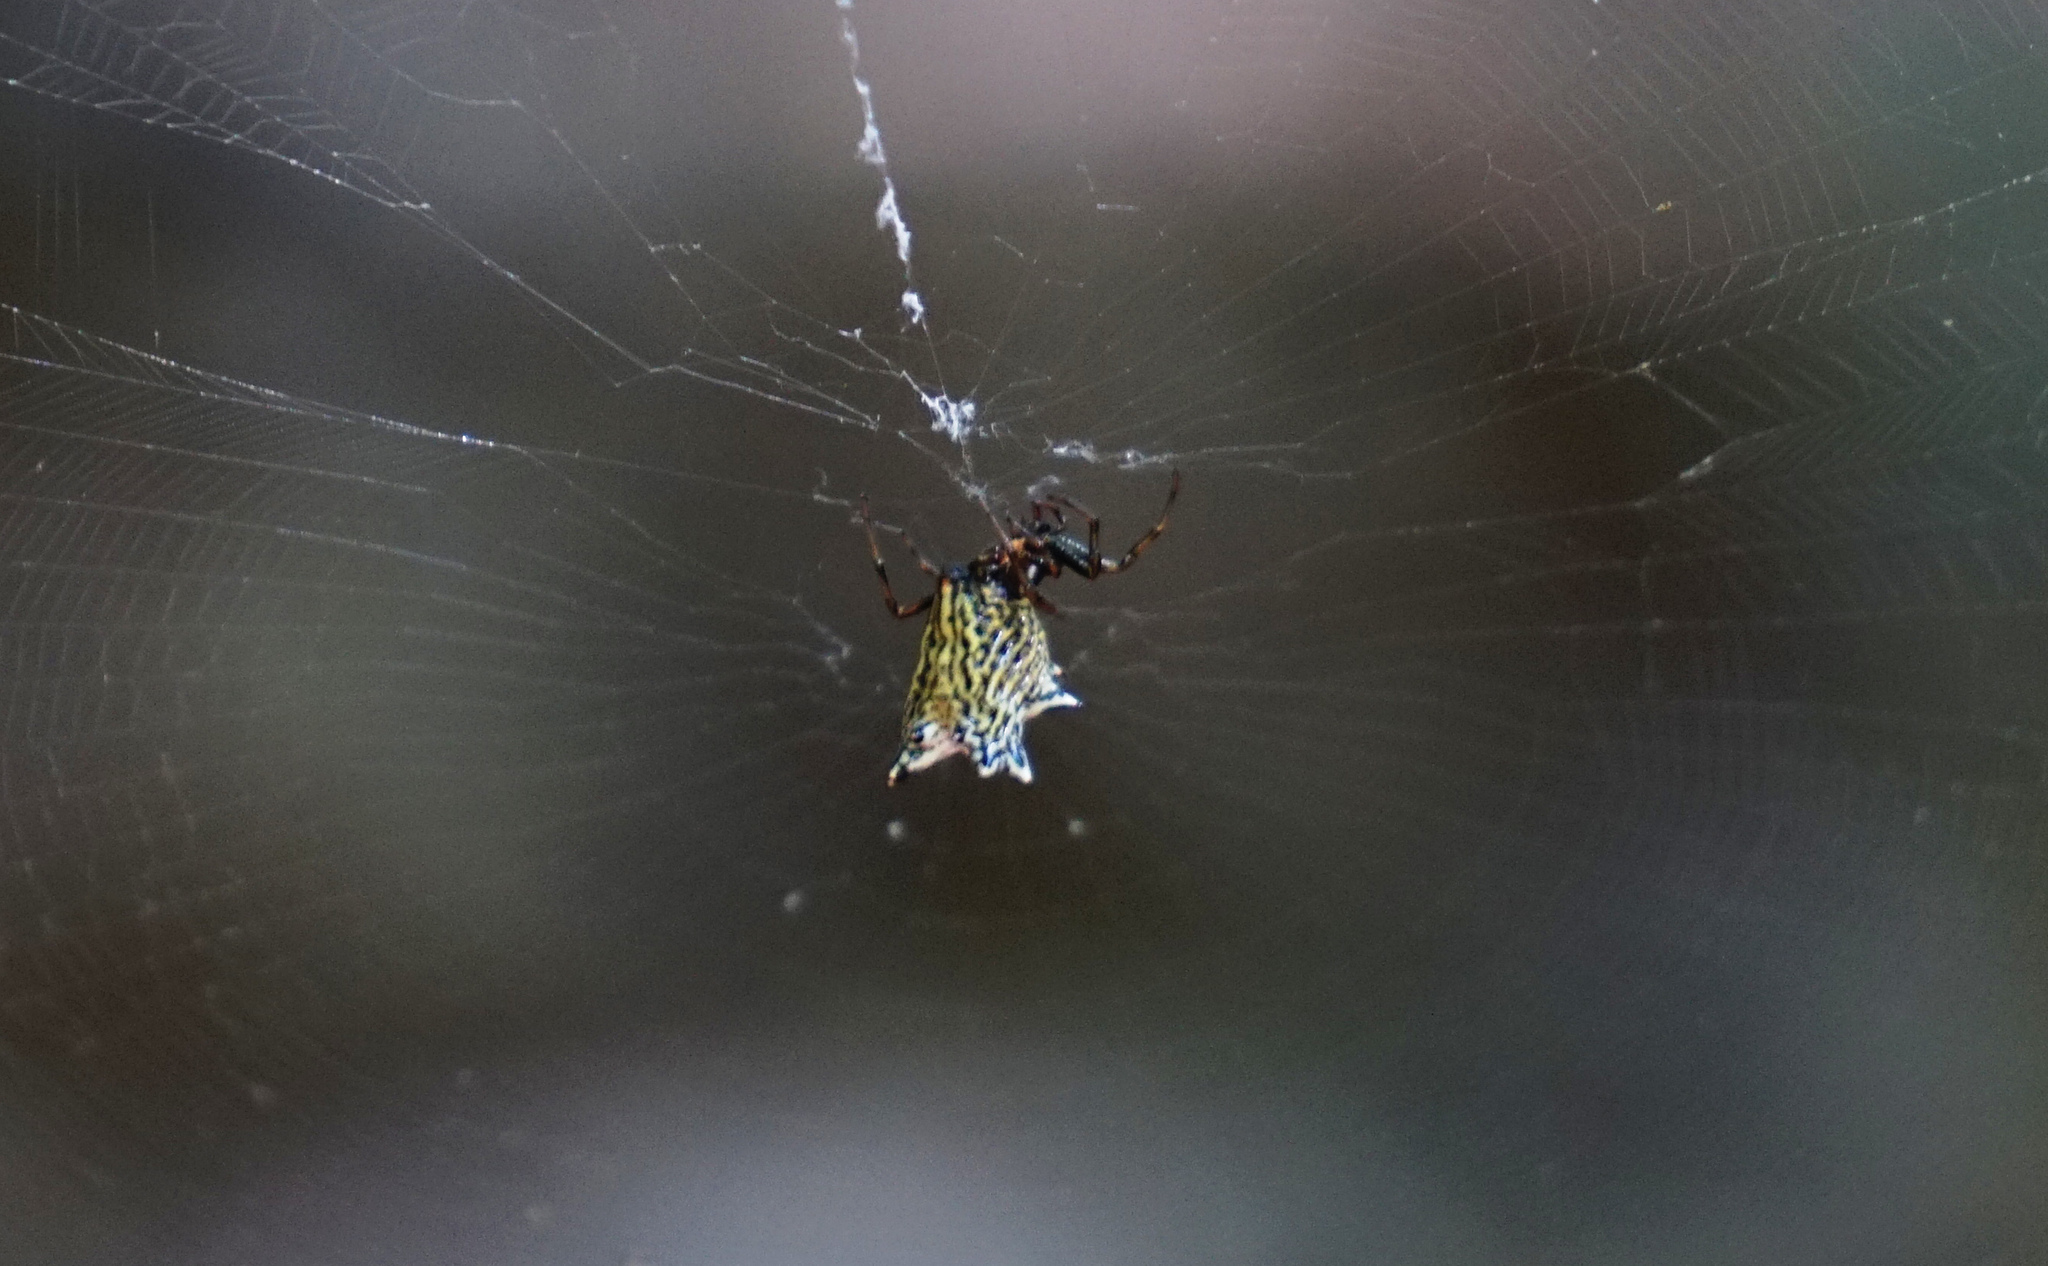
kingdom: Animalia
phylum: Arthropoda
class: Arachnida
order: Araneae
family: Araneidae
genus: Micrathena
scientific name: Micrathena gracilis
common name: Orb weavers
